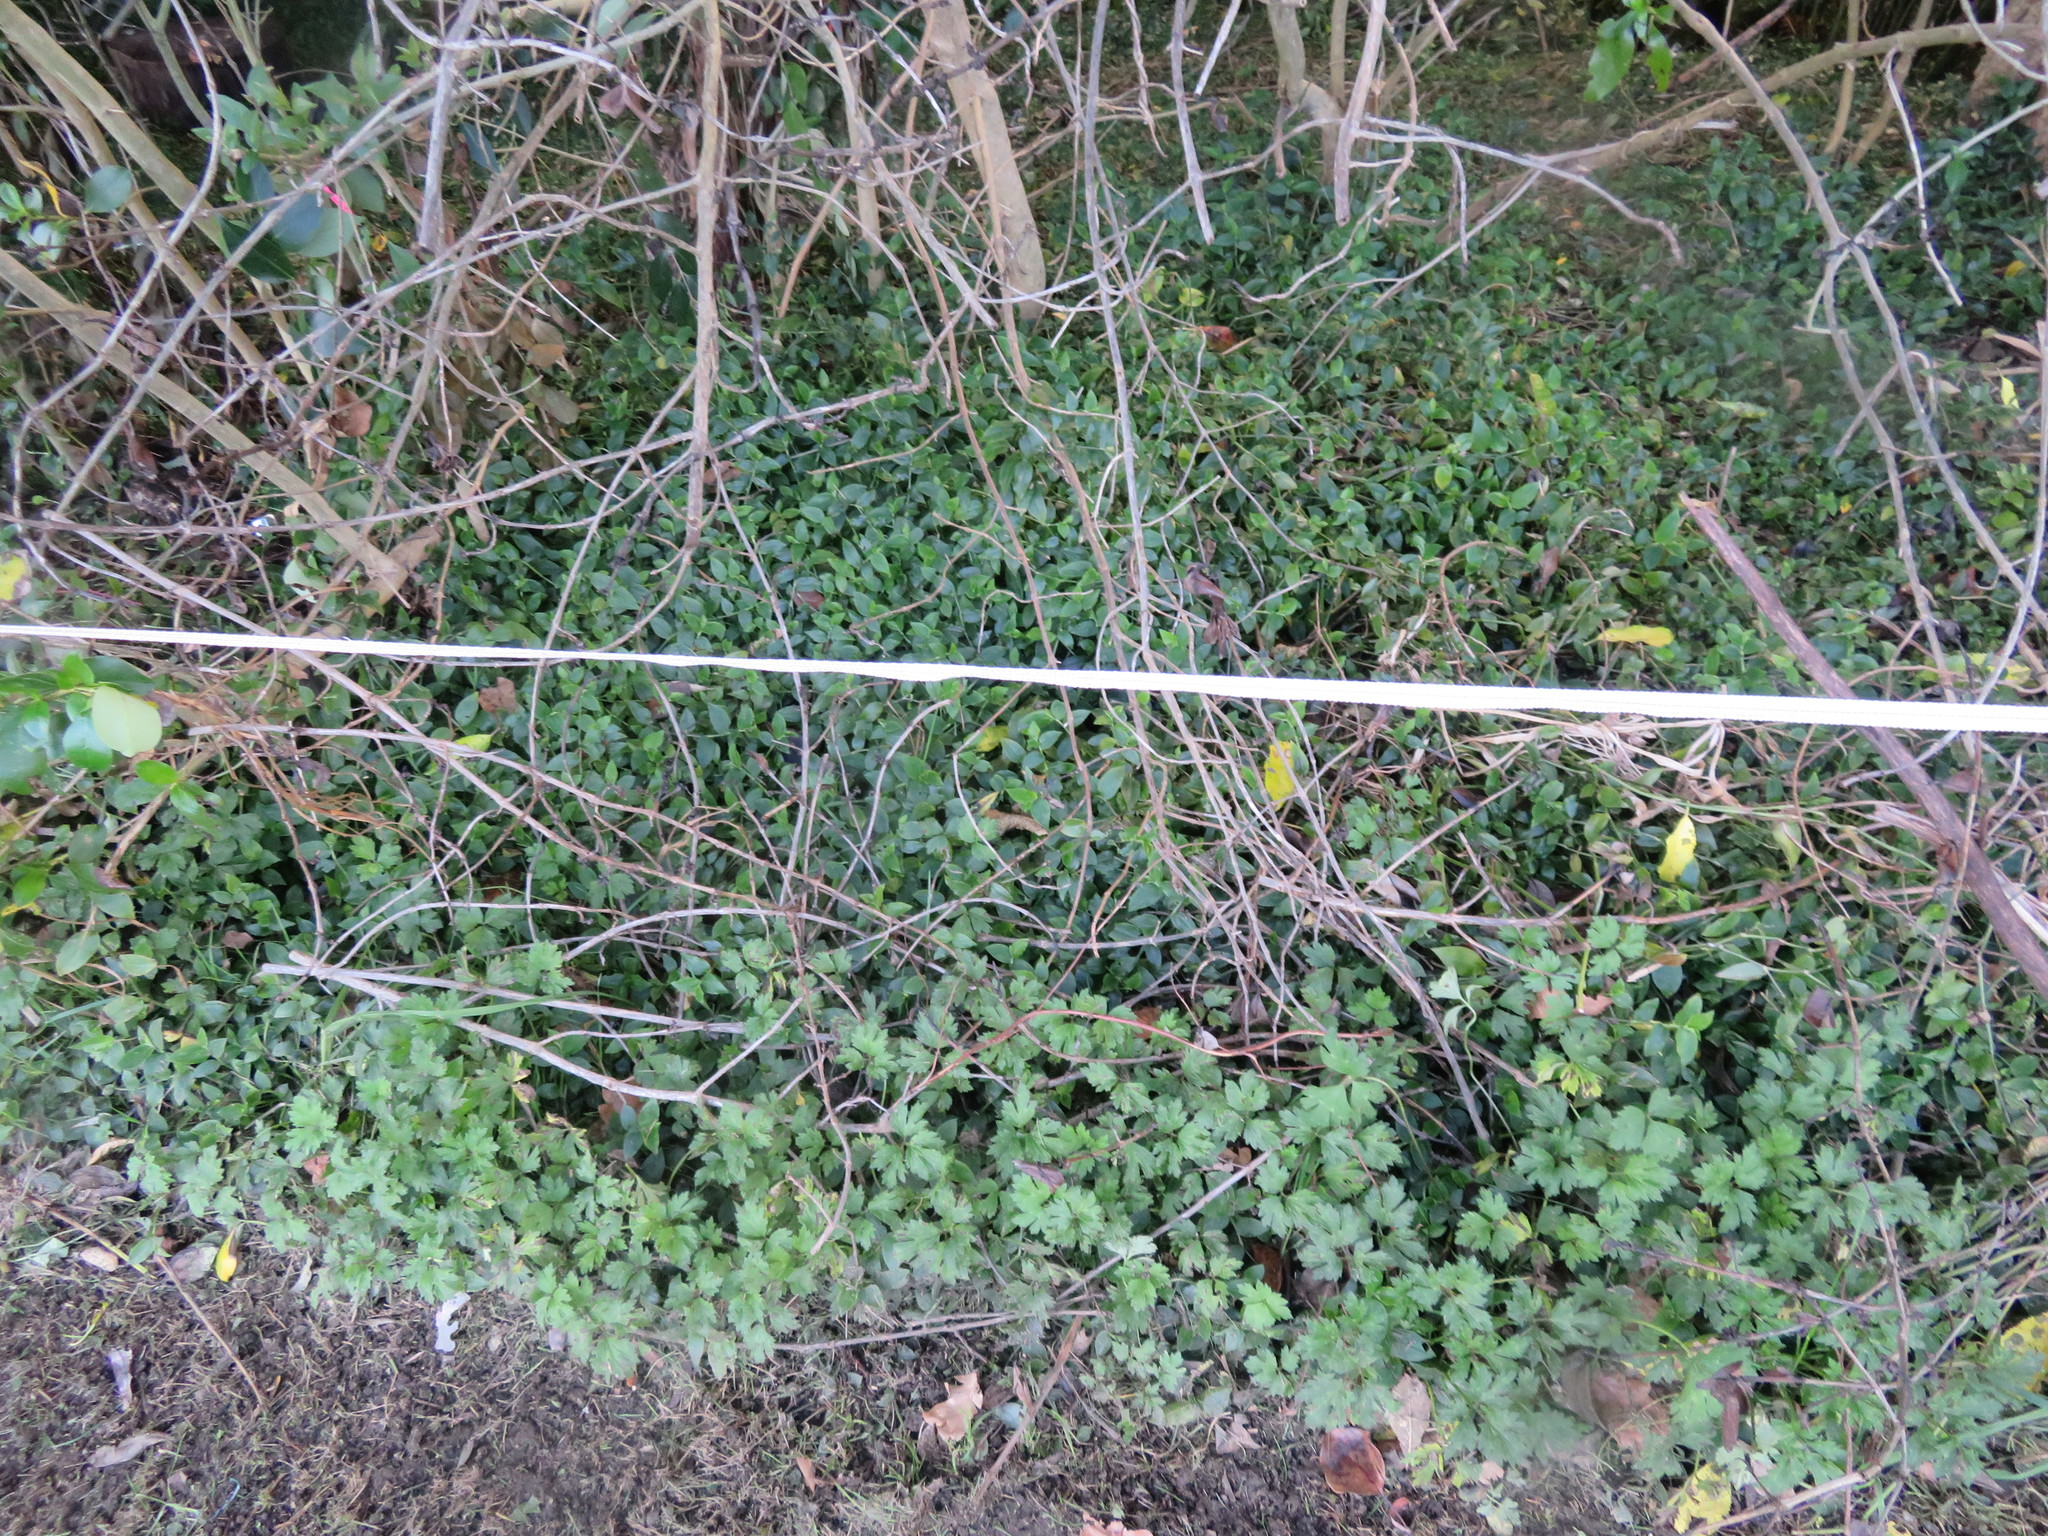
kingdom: Plantae
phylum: Tracheophyta
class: Magnoliopsida
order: Ranunculales
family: Ranunculaceae
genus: Ranunculus
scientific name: Ranunculus repens
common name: Creeping buttercup
